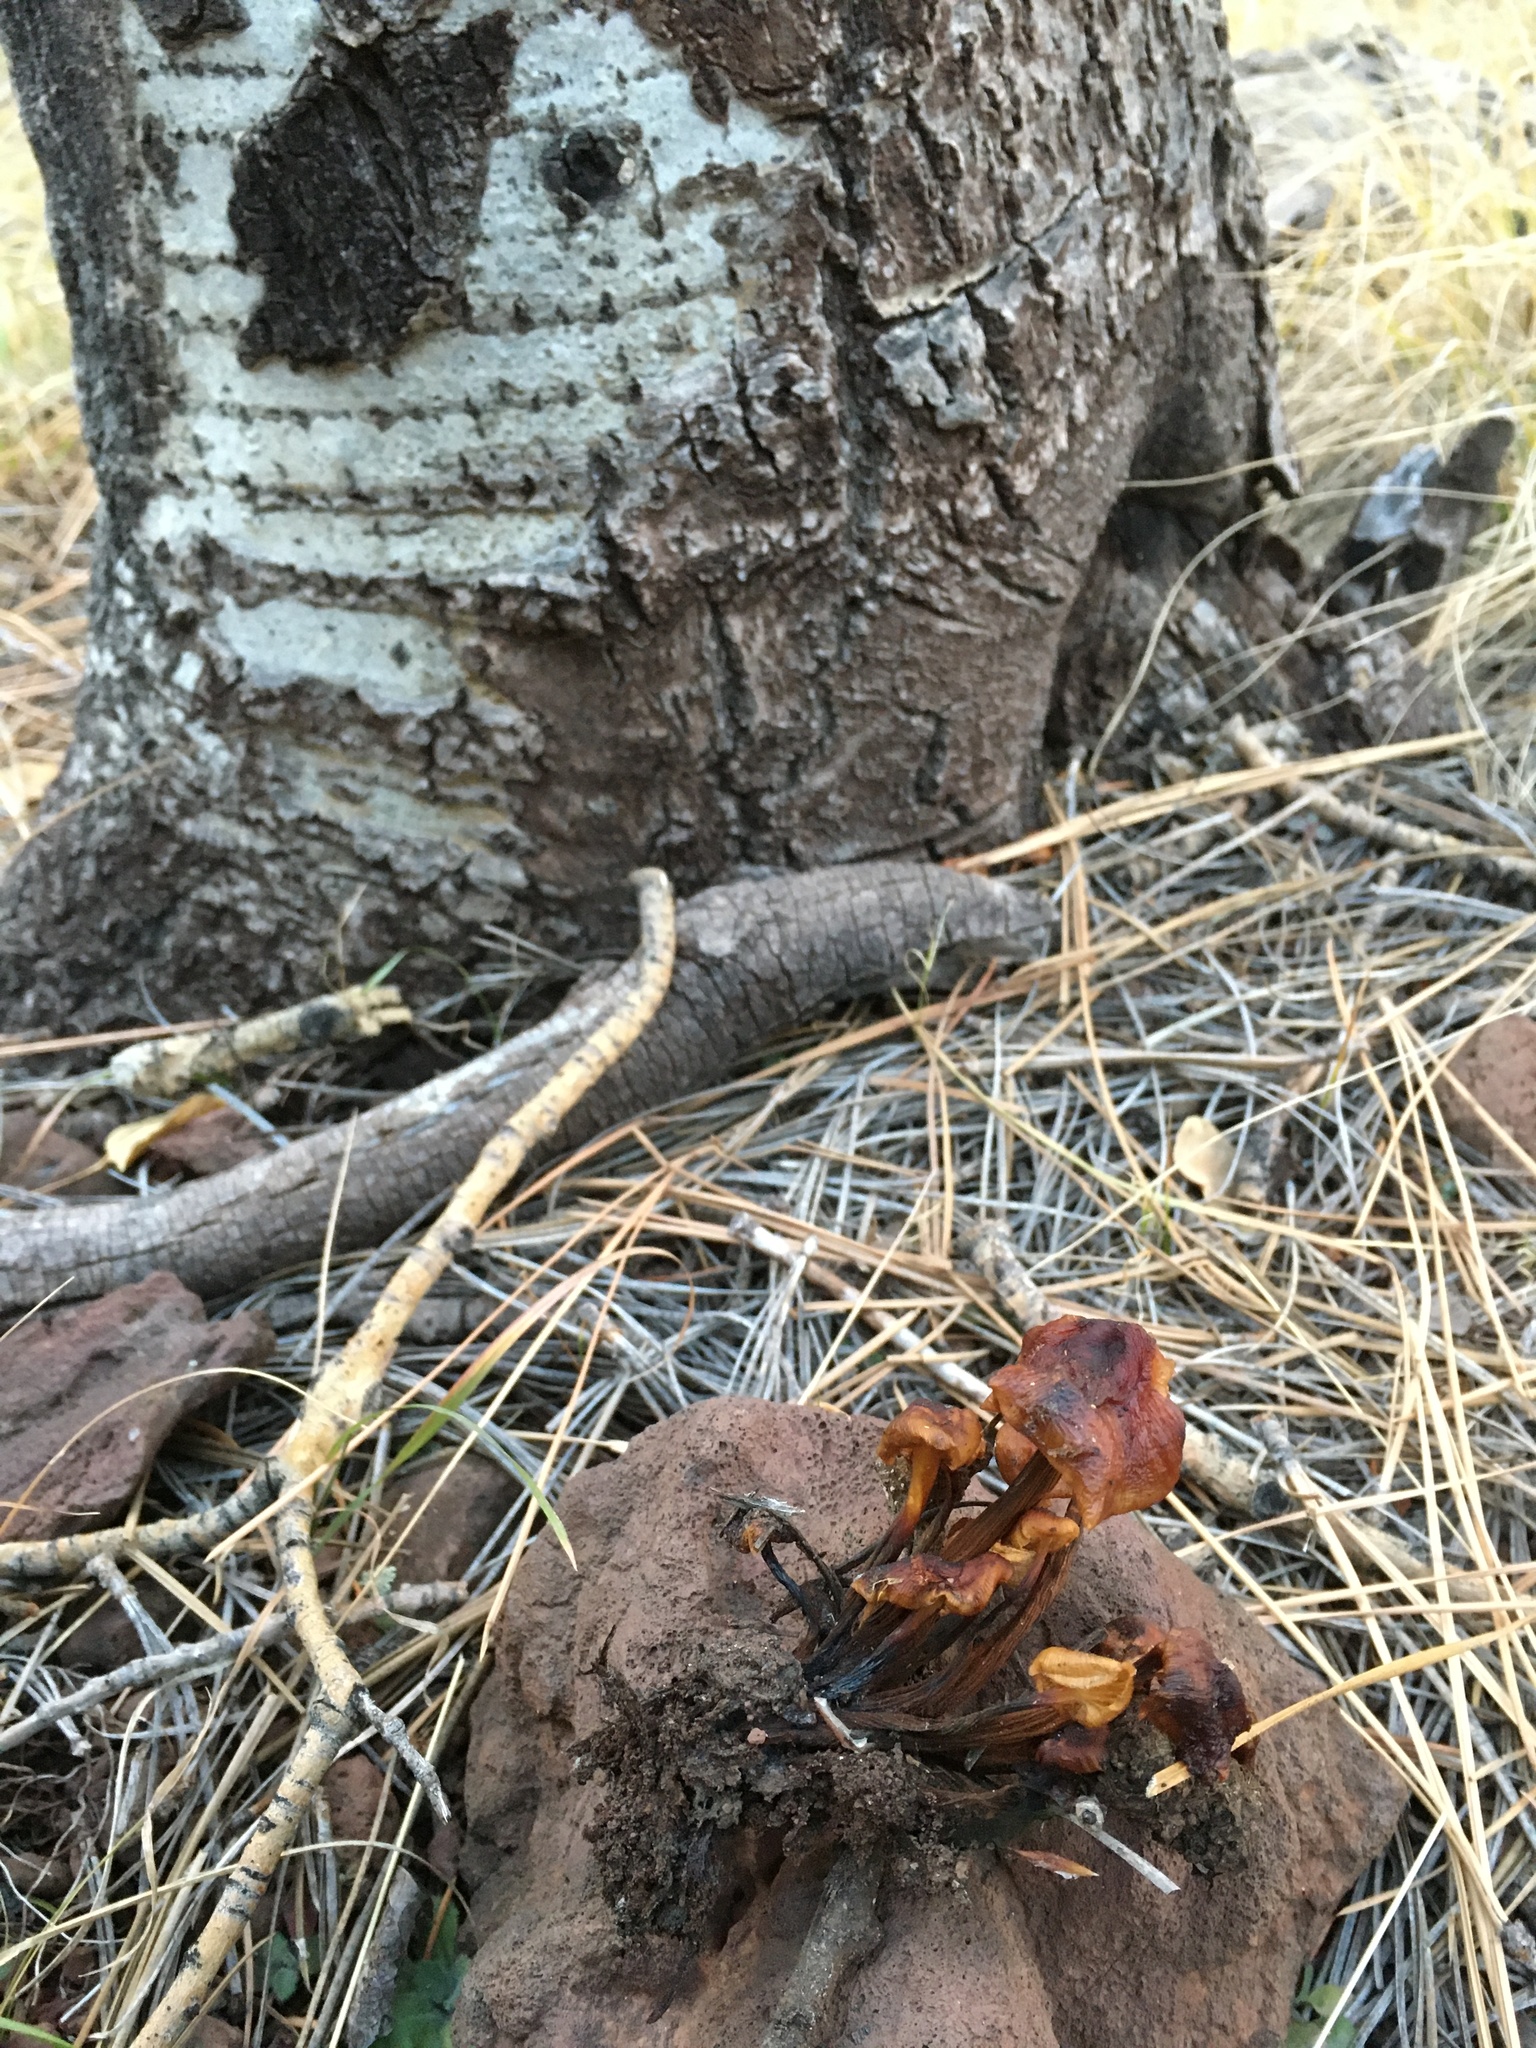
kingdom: Fungi
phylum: Basidiomycota
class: Agaricomycetes
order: Agaricales
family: Physalacriaceae
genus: Flammulina
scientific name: Flammulina populicola
